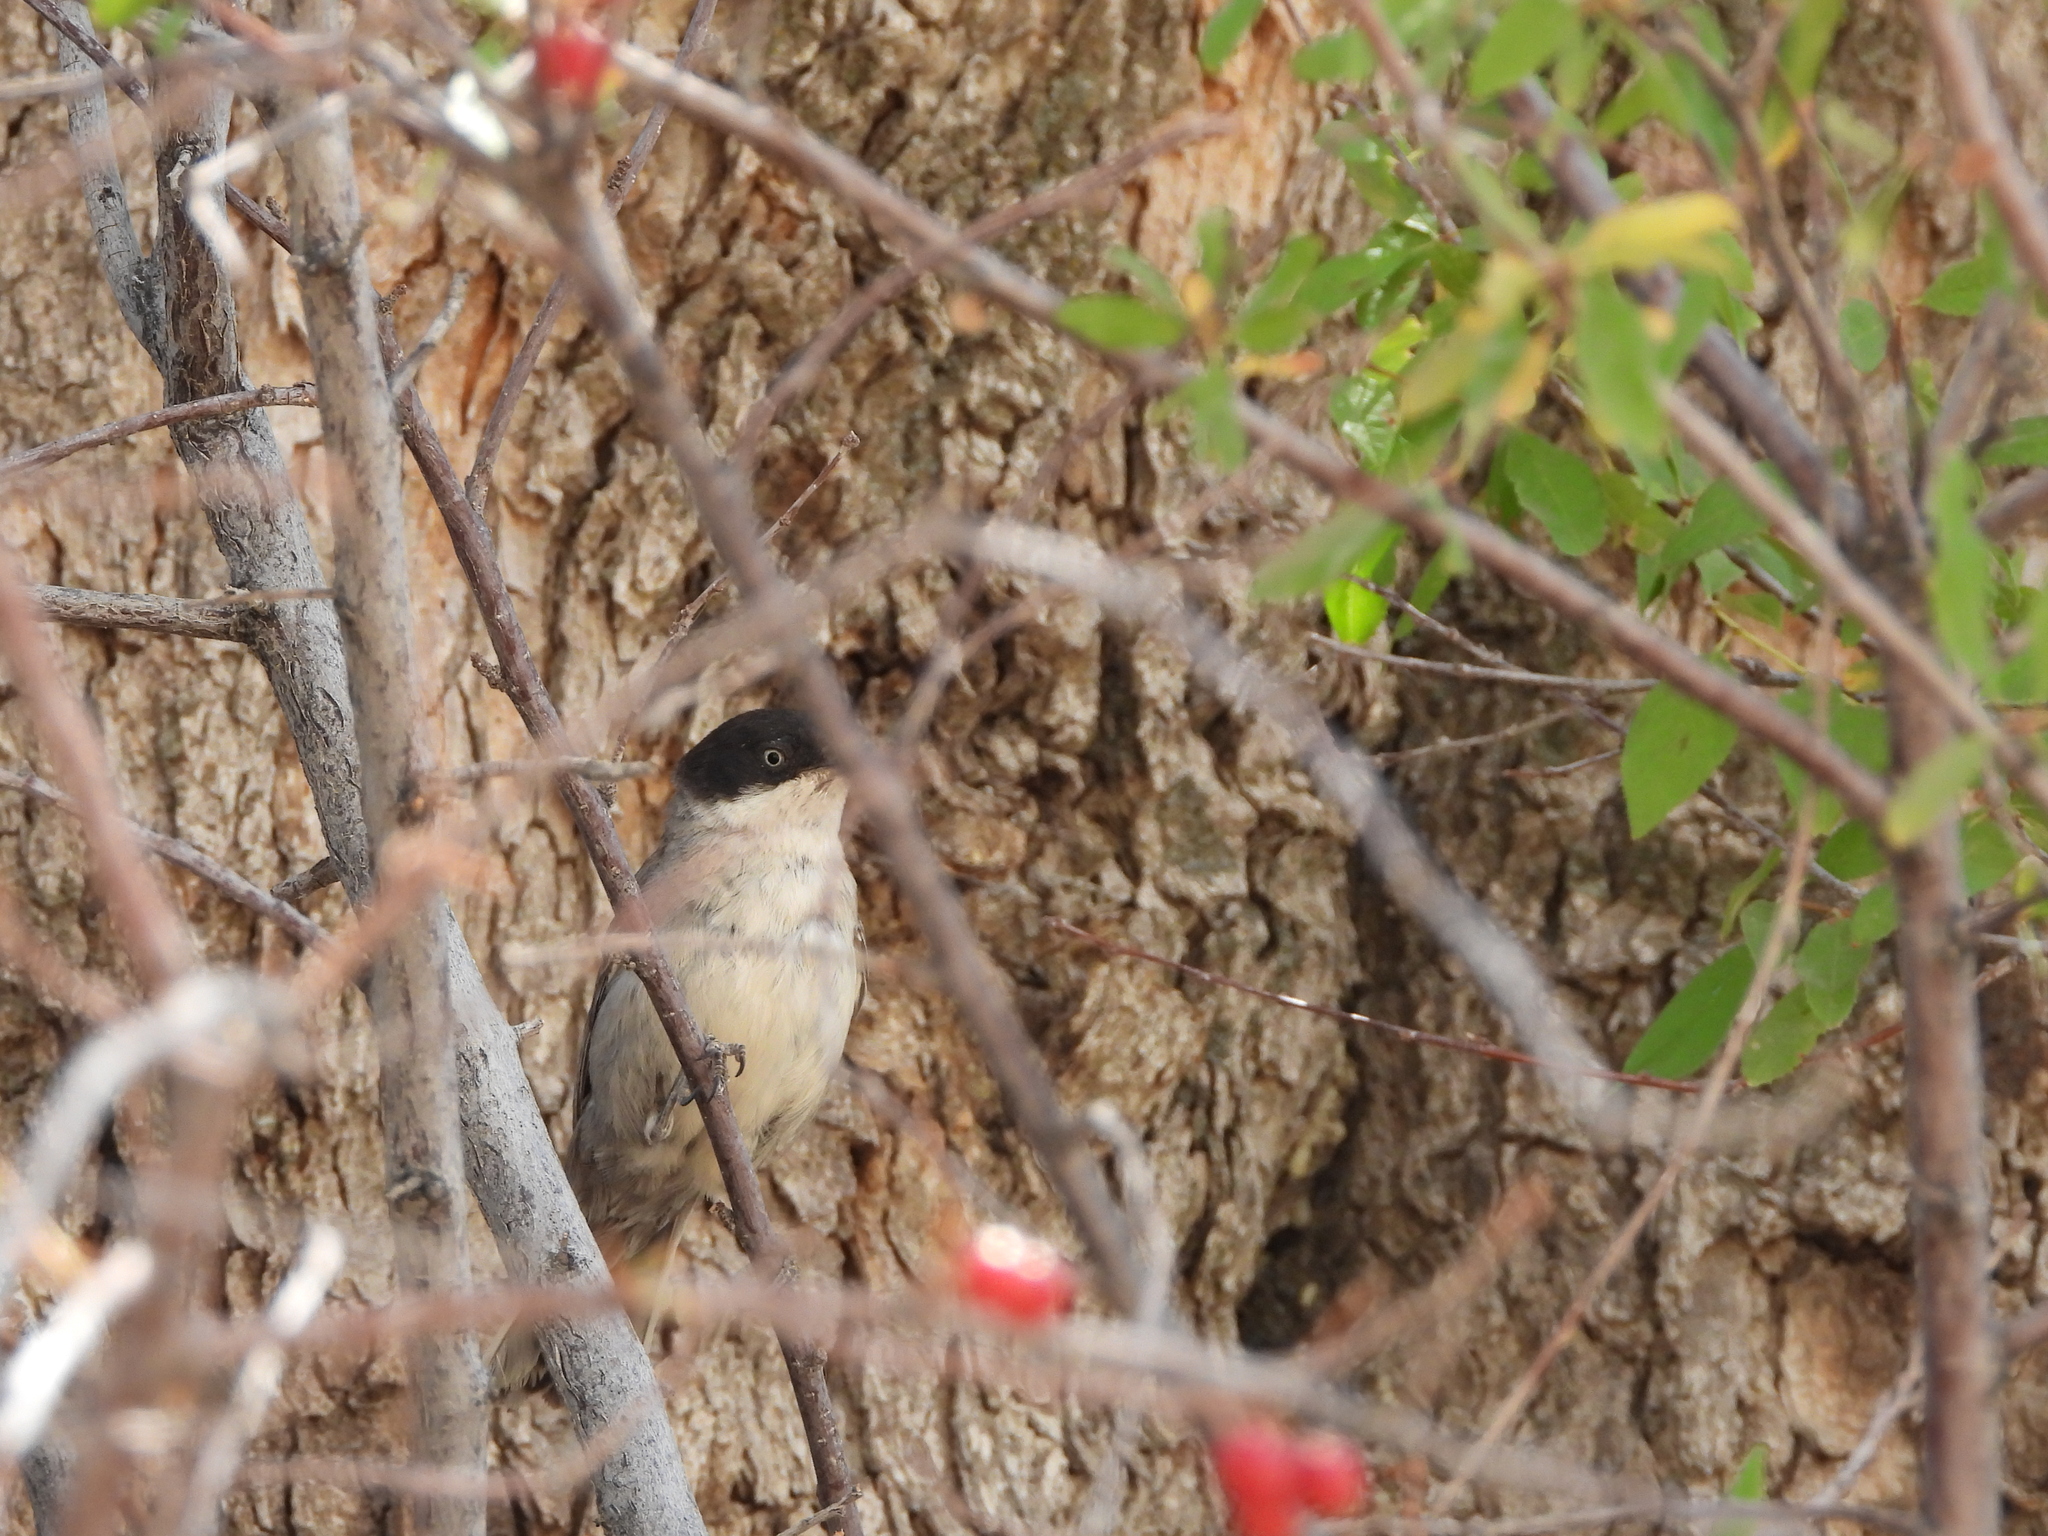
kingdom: Animalia
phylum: Chordata
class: Aves
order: Passeriformes
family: Sylviidae
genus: Sylvia
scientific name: Sylvia crassirostris
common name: Eastern orphean warbler
